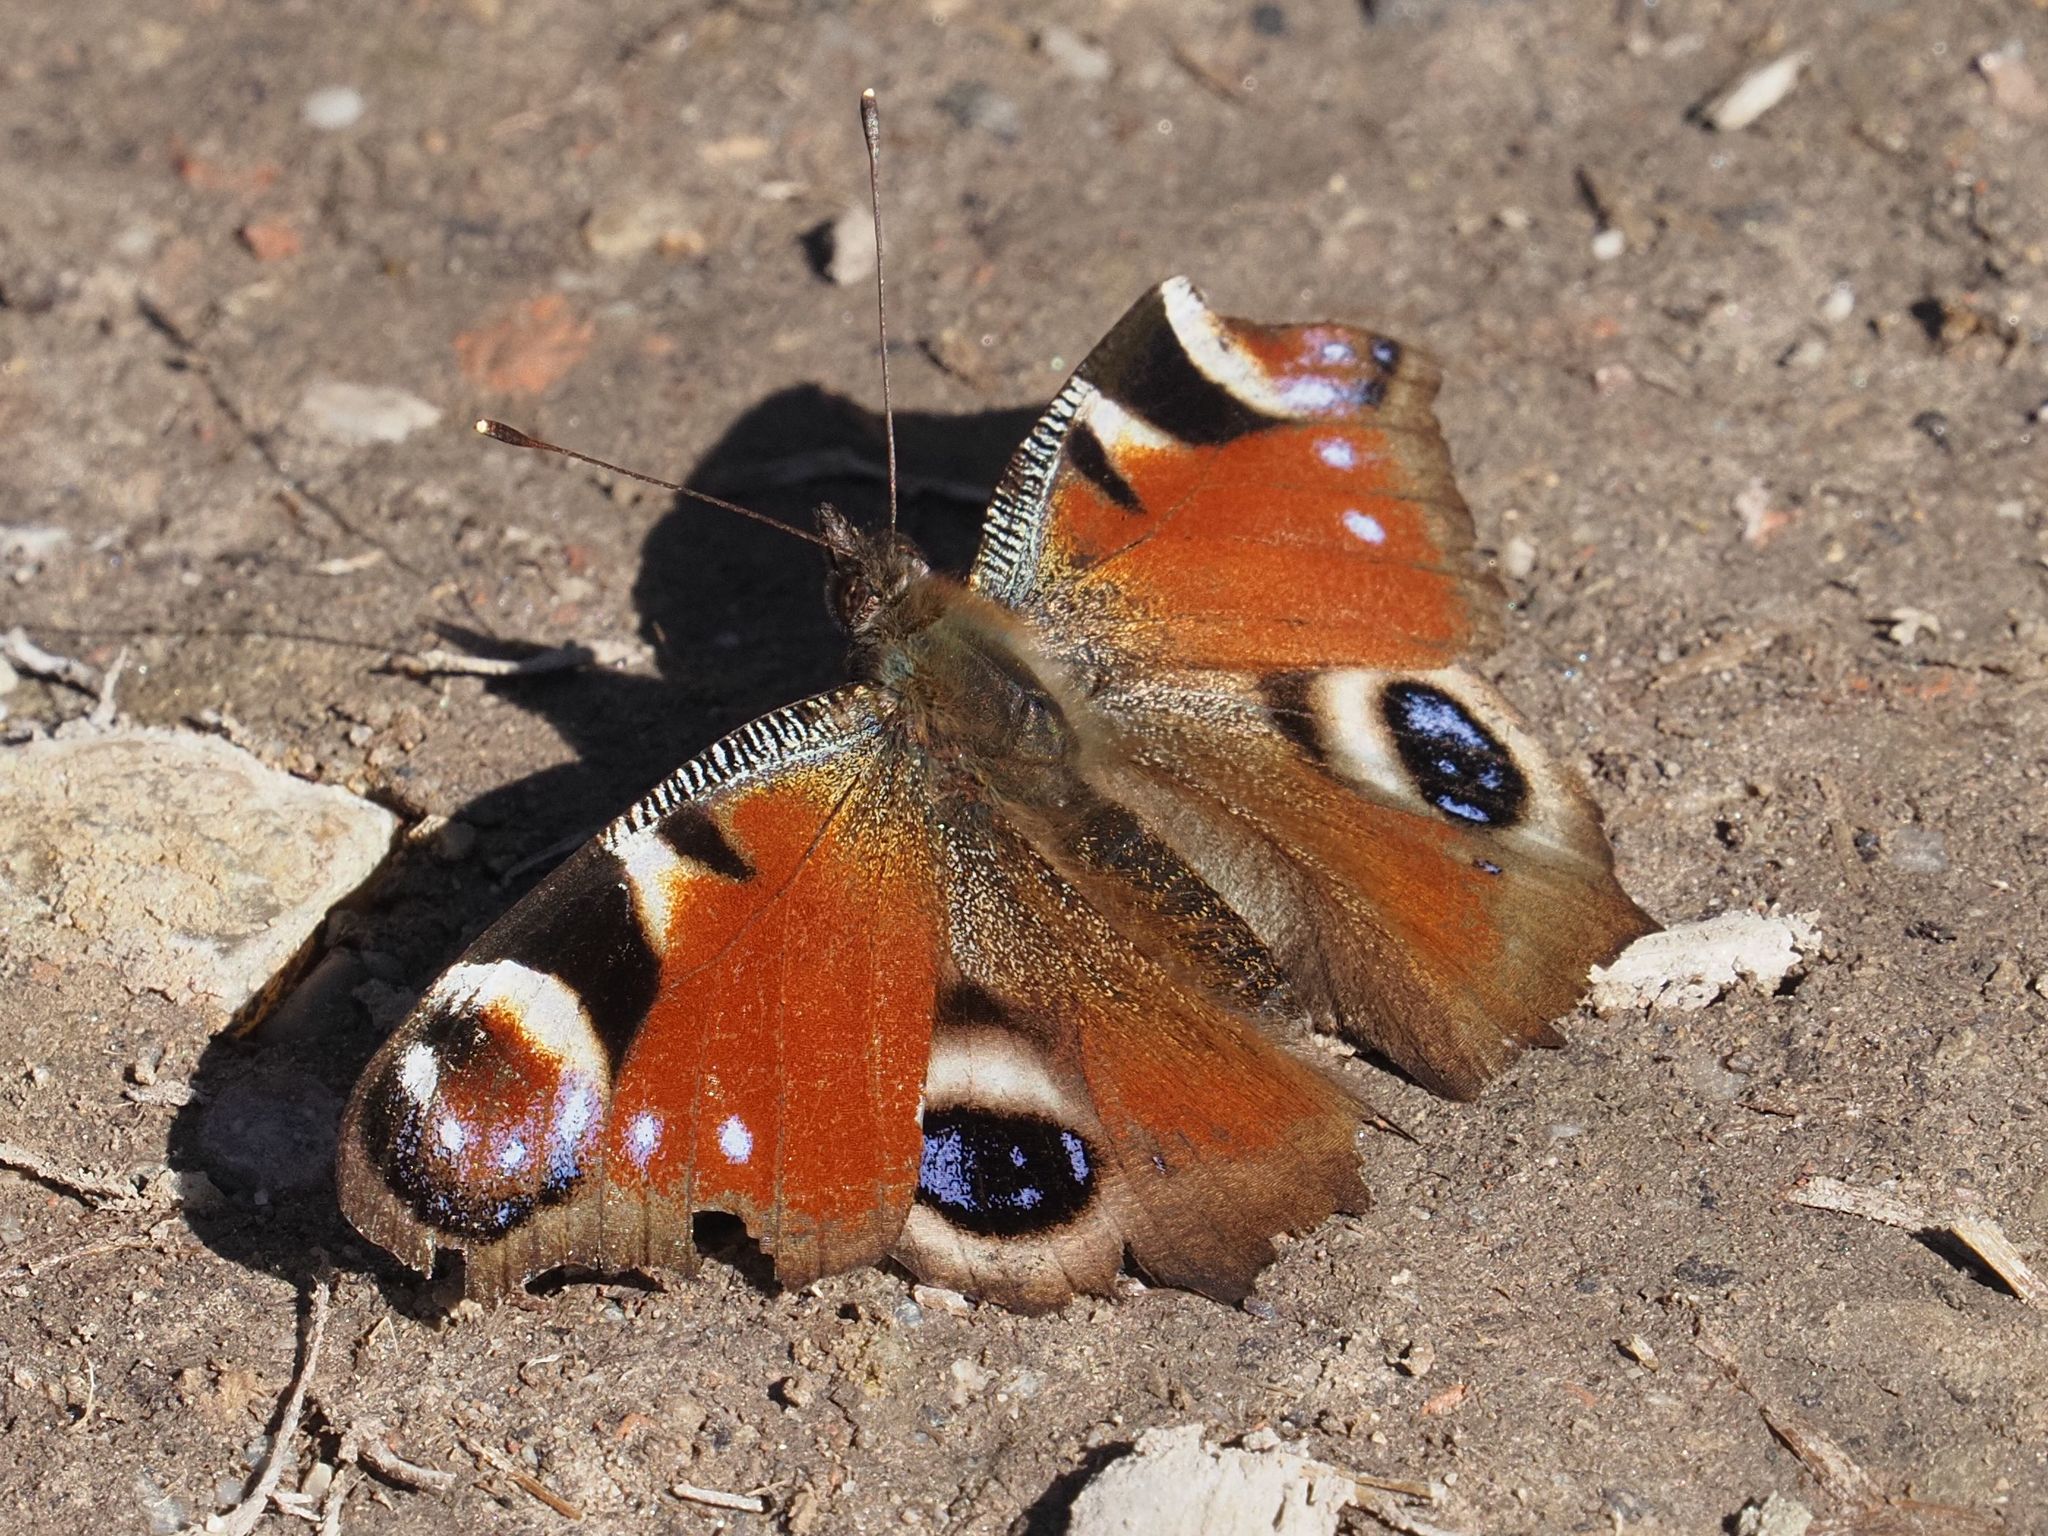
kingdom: Animalia
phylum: Arthropoda
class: Insecta
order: Lepidoptera
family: Nymphalidae
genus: Aglais
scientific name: Aglais io
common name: Peacock
